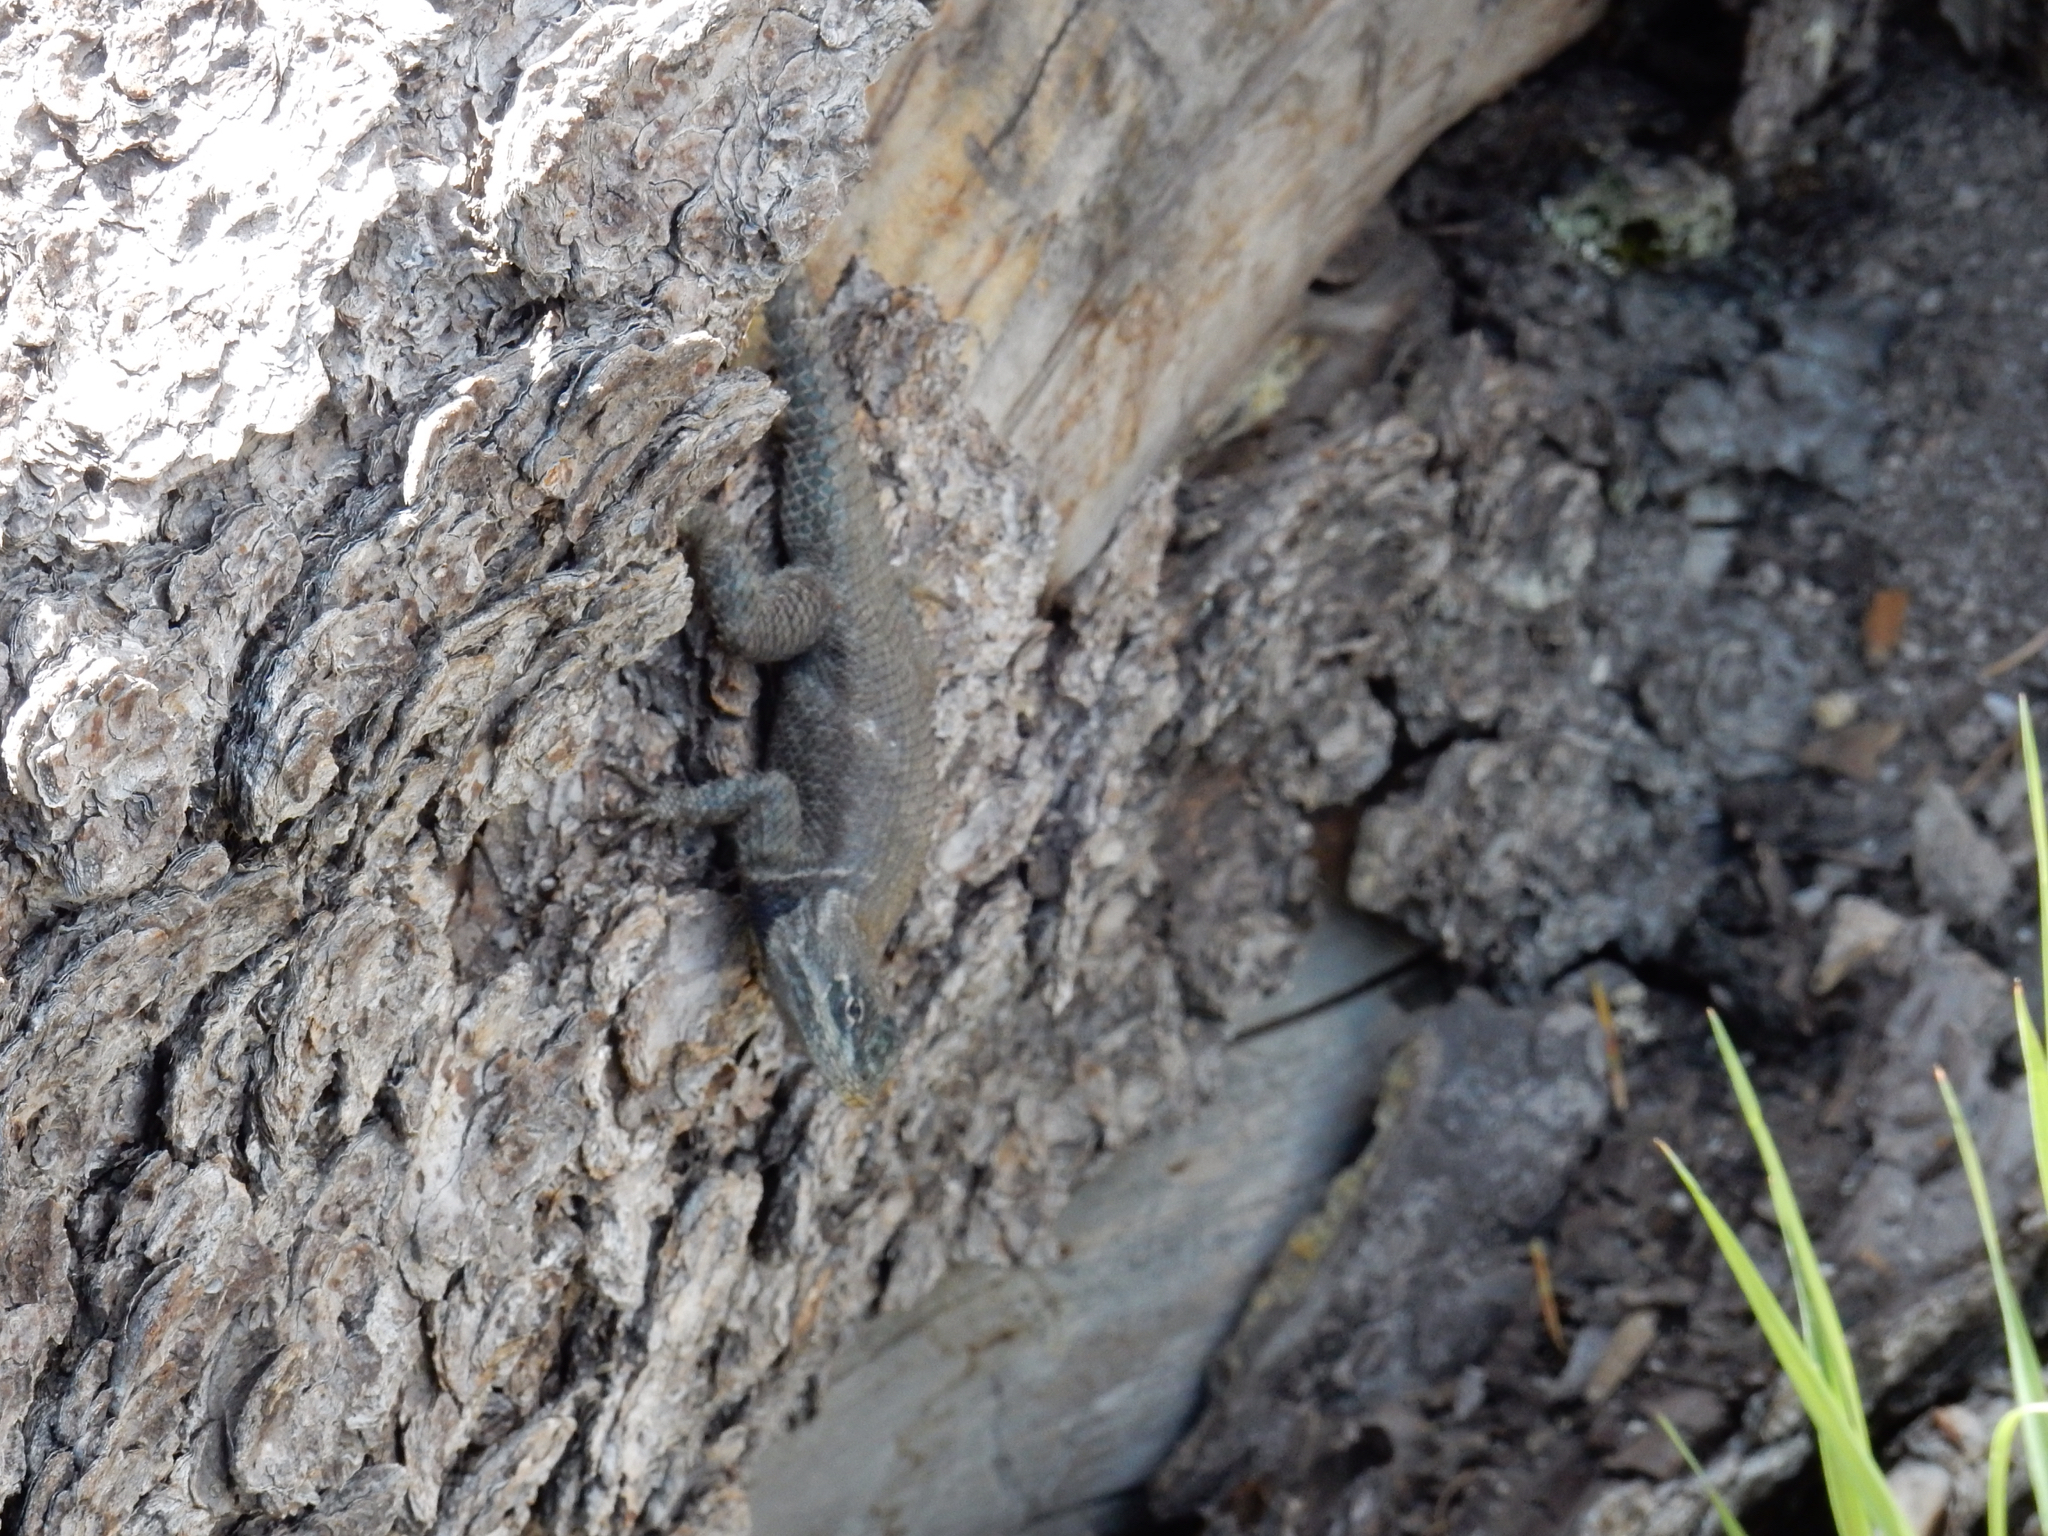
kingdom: Animalia
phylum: Chordata
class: Squamata
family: Phrynosomatidae
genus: Sceloporus
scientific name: Sceloporus jarrovii
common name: Yarrow's spiny lizard
